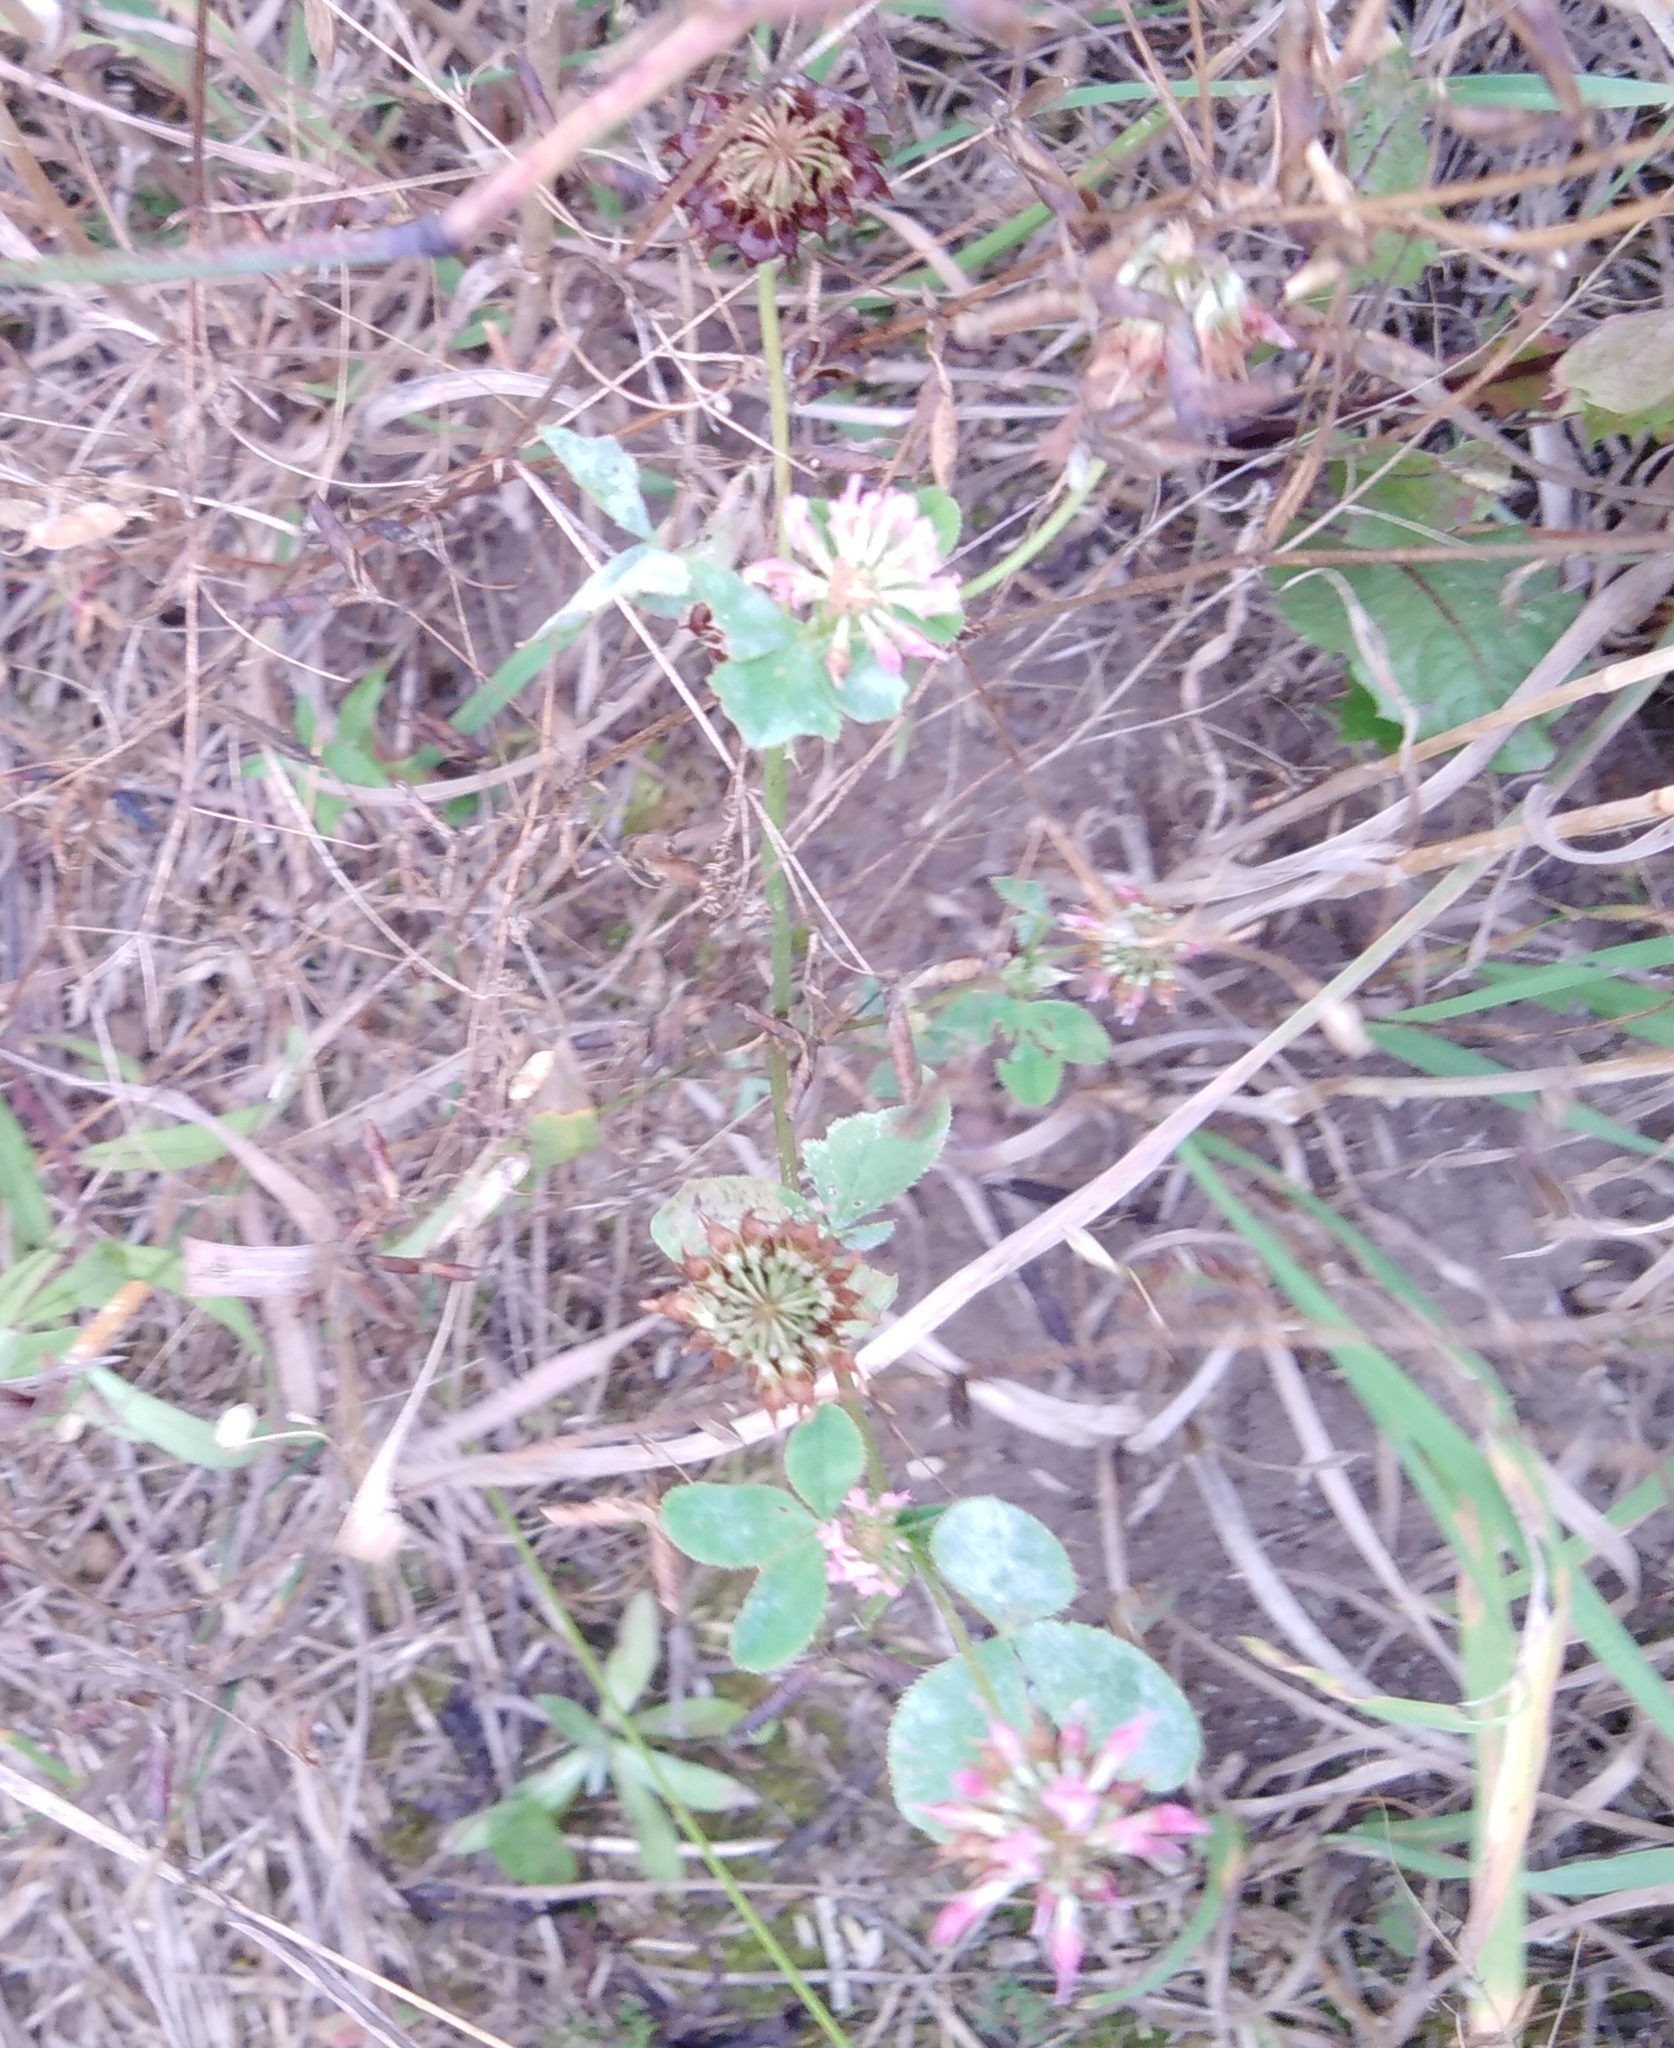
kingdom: Plantae
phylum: Tracheophyta
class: Magnoliopsida
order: Fabales
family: Fabaceae
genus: Trifolium
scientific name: Trifolium hybridum
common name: Alsike clover
